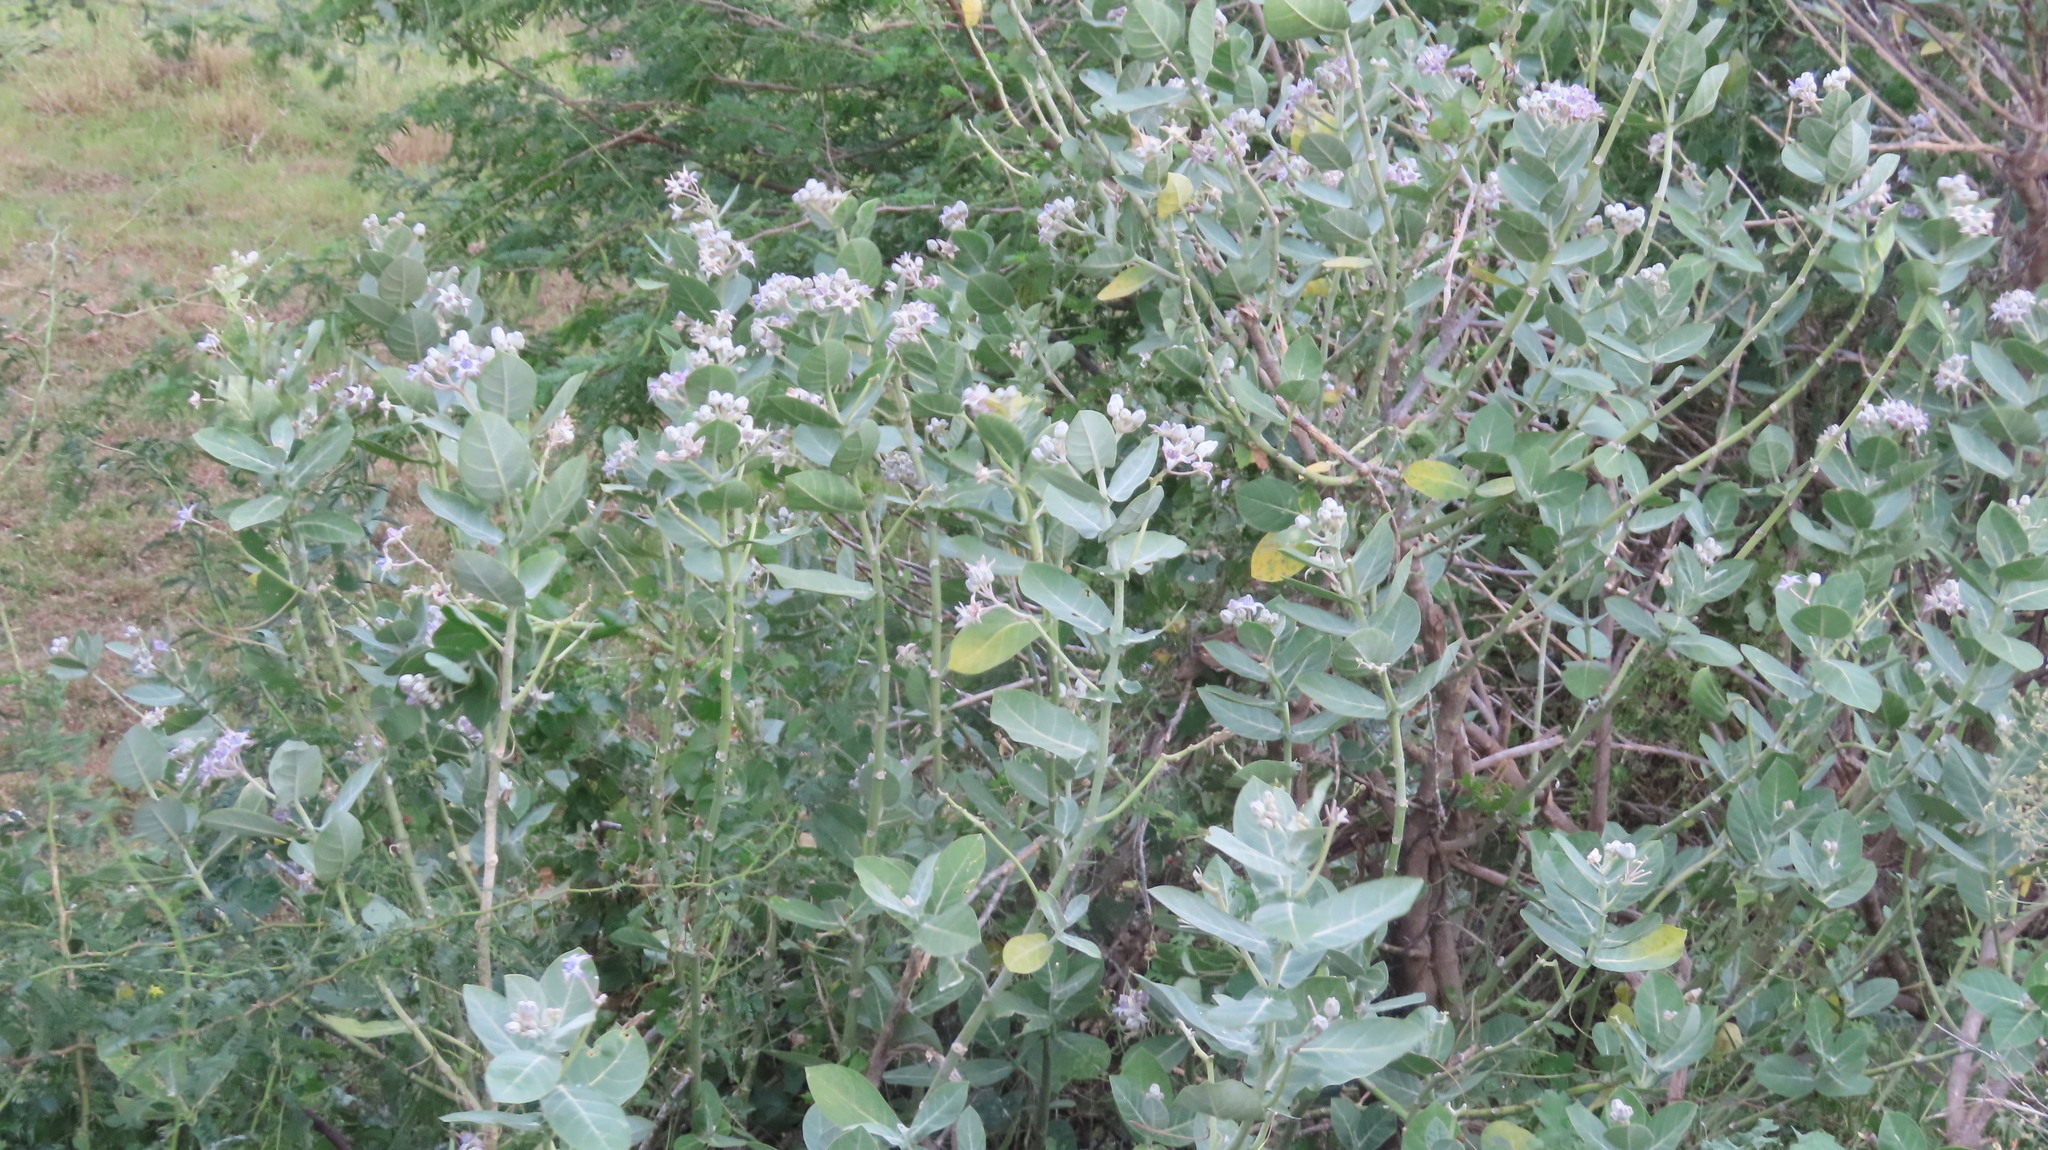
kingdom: Plantae
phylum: Tracheophyta
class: Magnoliopsida
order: Gentianales
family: Apocynaceae
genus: Calotropis
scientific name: Calotropis gigantea
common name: Crown flower
